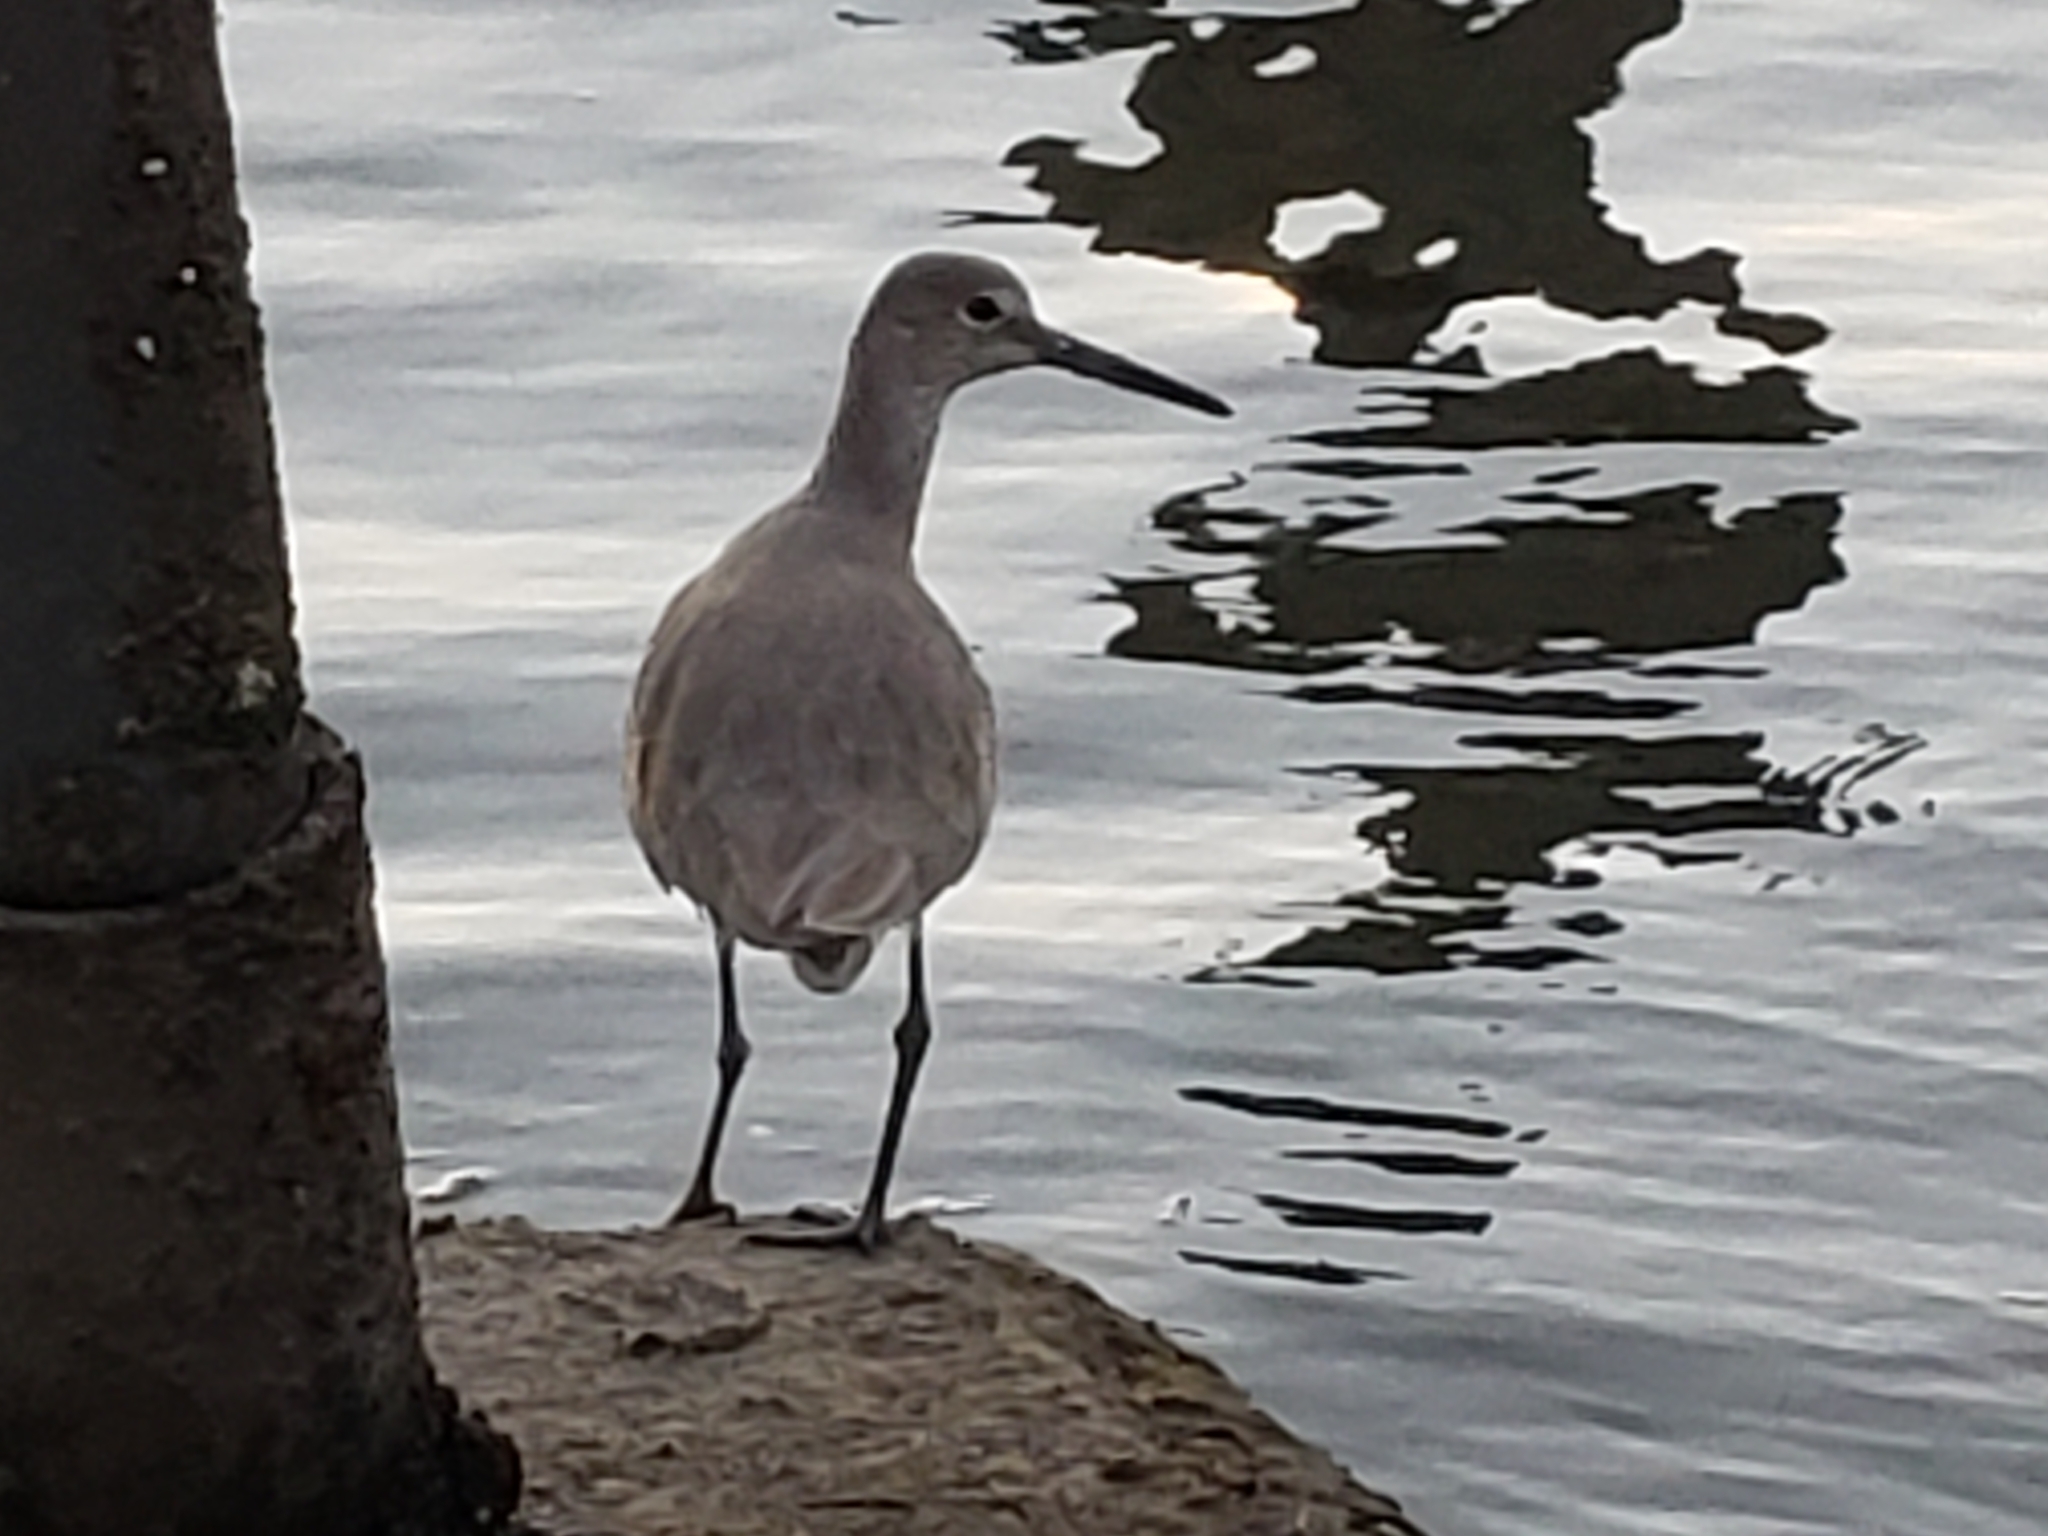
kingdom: Animalia
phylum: Chordata
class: Aves
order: Charadriiformes
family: Scolopacidae
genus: Tringa
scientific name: Tringa semipalmata
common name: Willet
